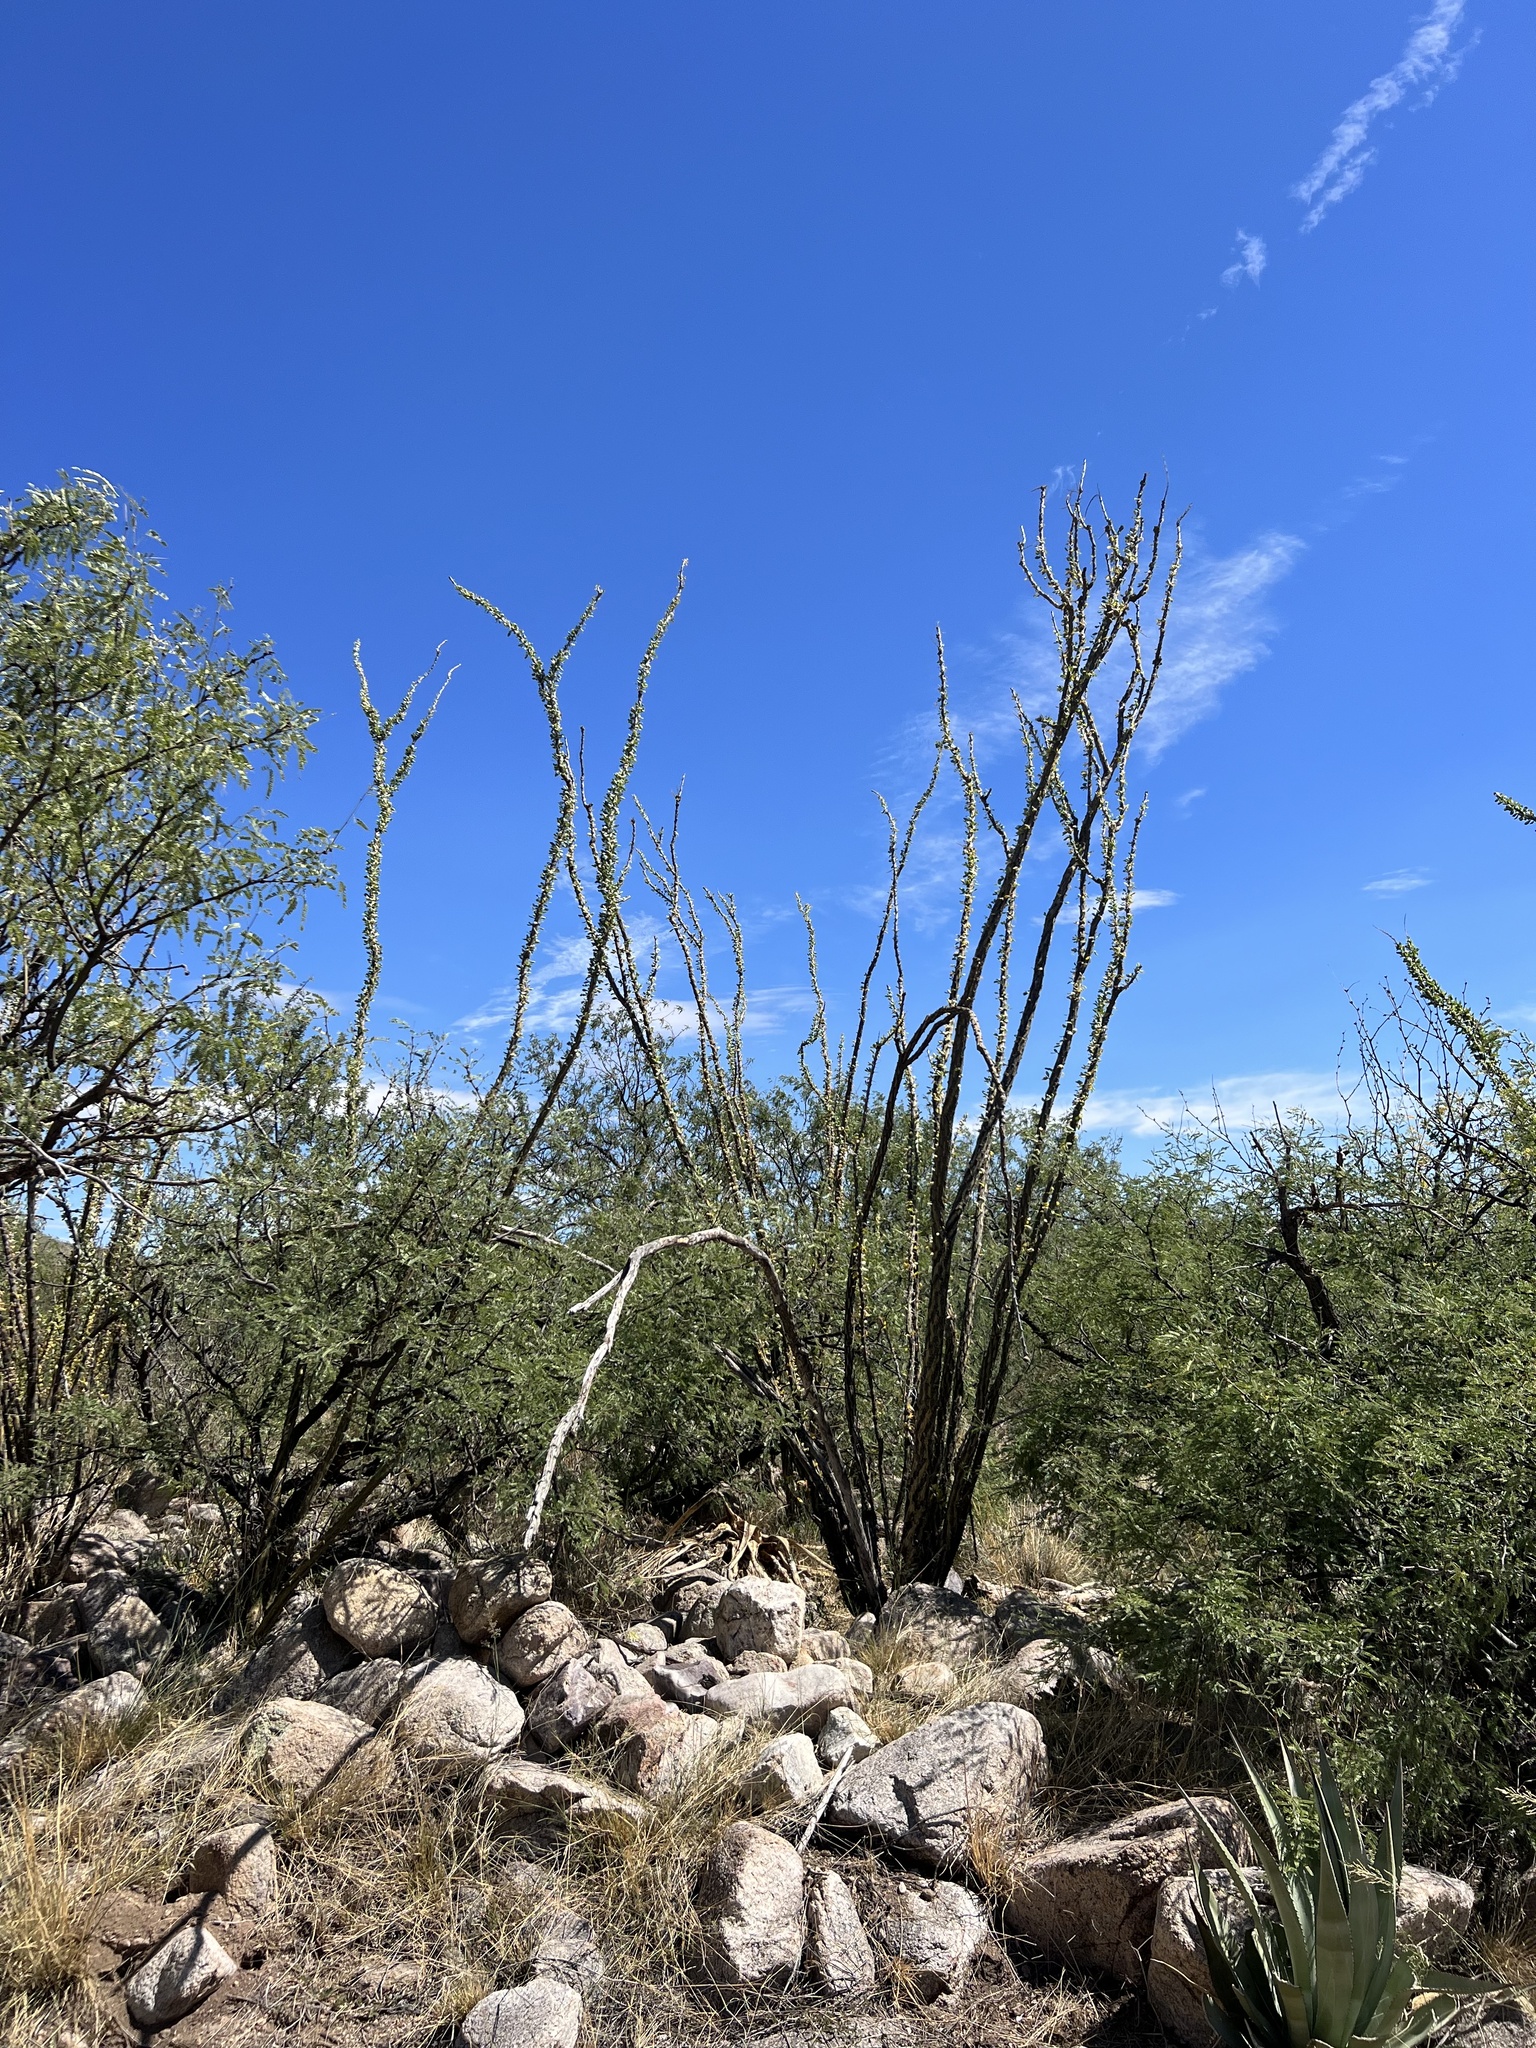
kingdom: Plantae
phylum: Tracheophyta
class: Magnoliopsida
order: Ericales
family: Fouquieriaceae
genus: Fouquieria
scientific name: Fouquieria splendens
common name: Vine-cactus
